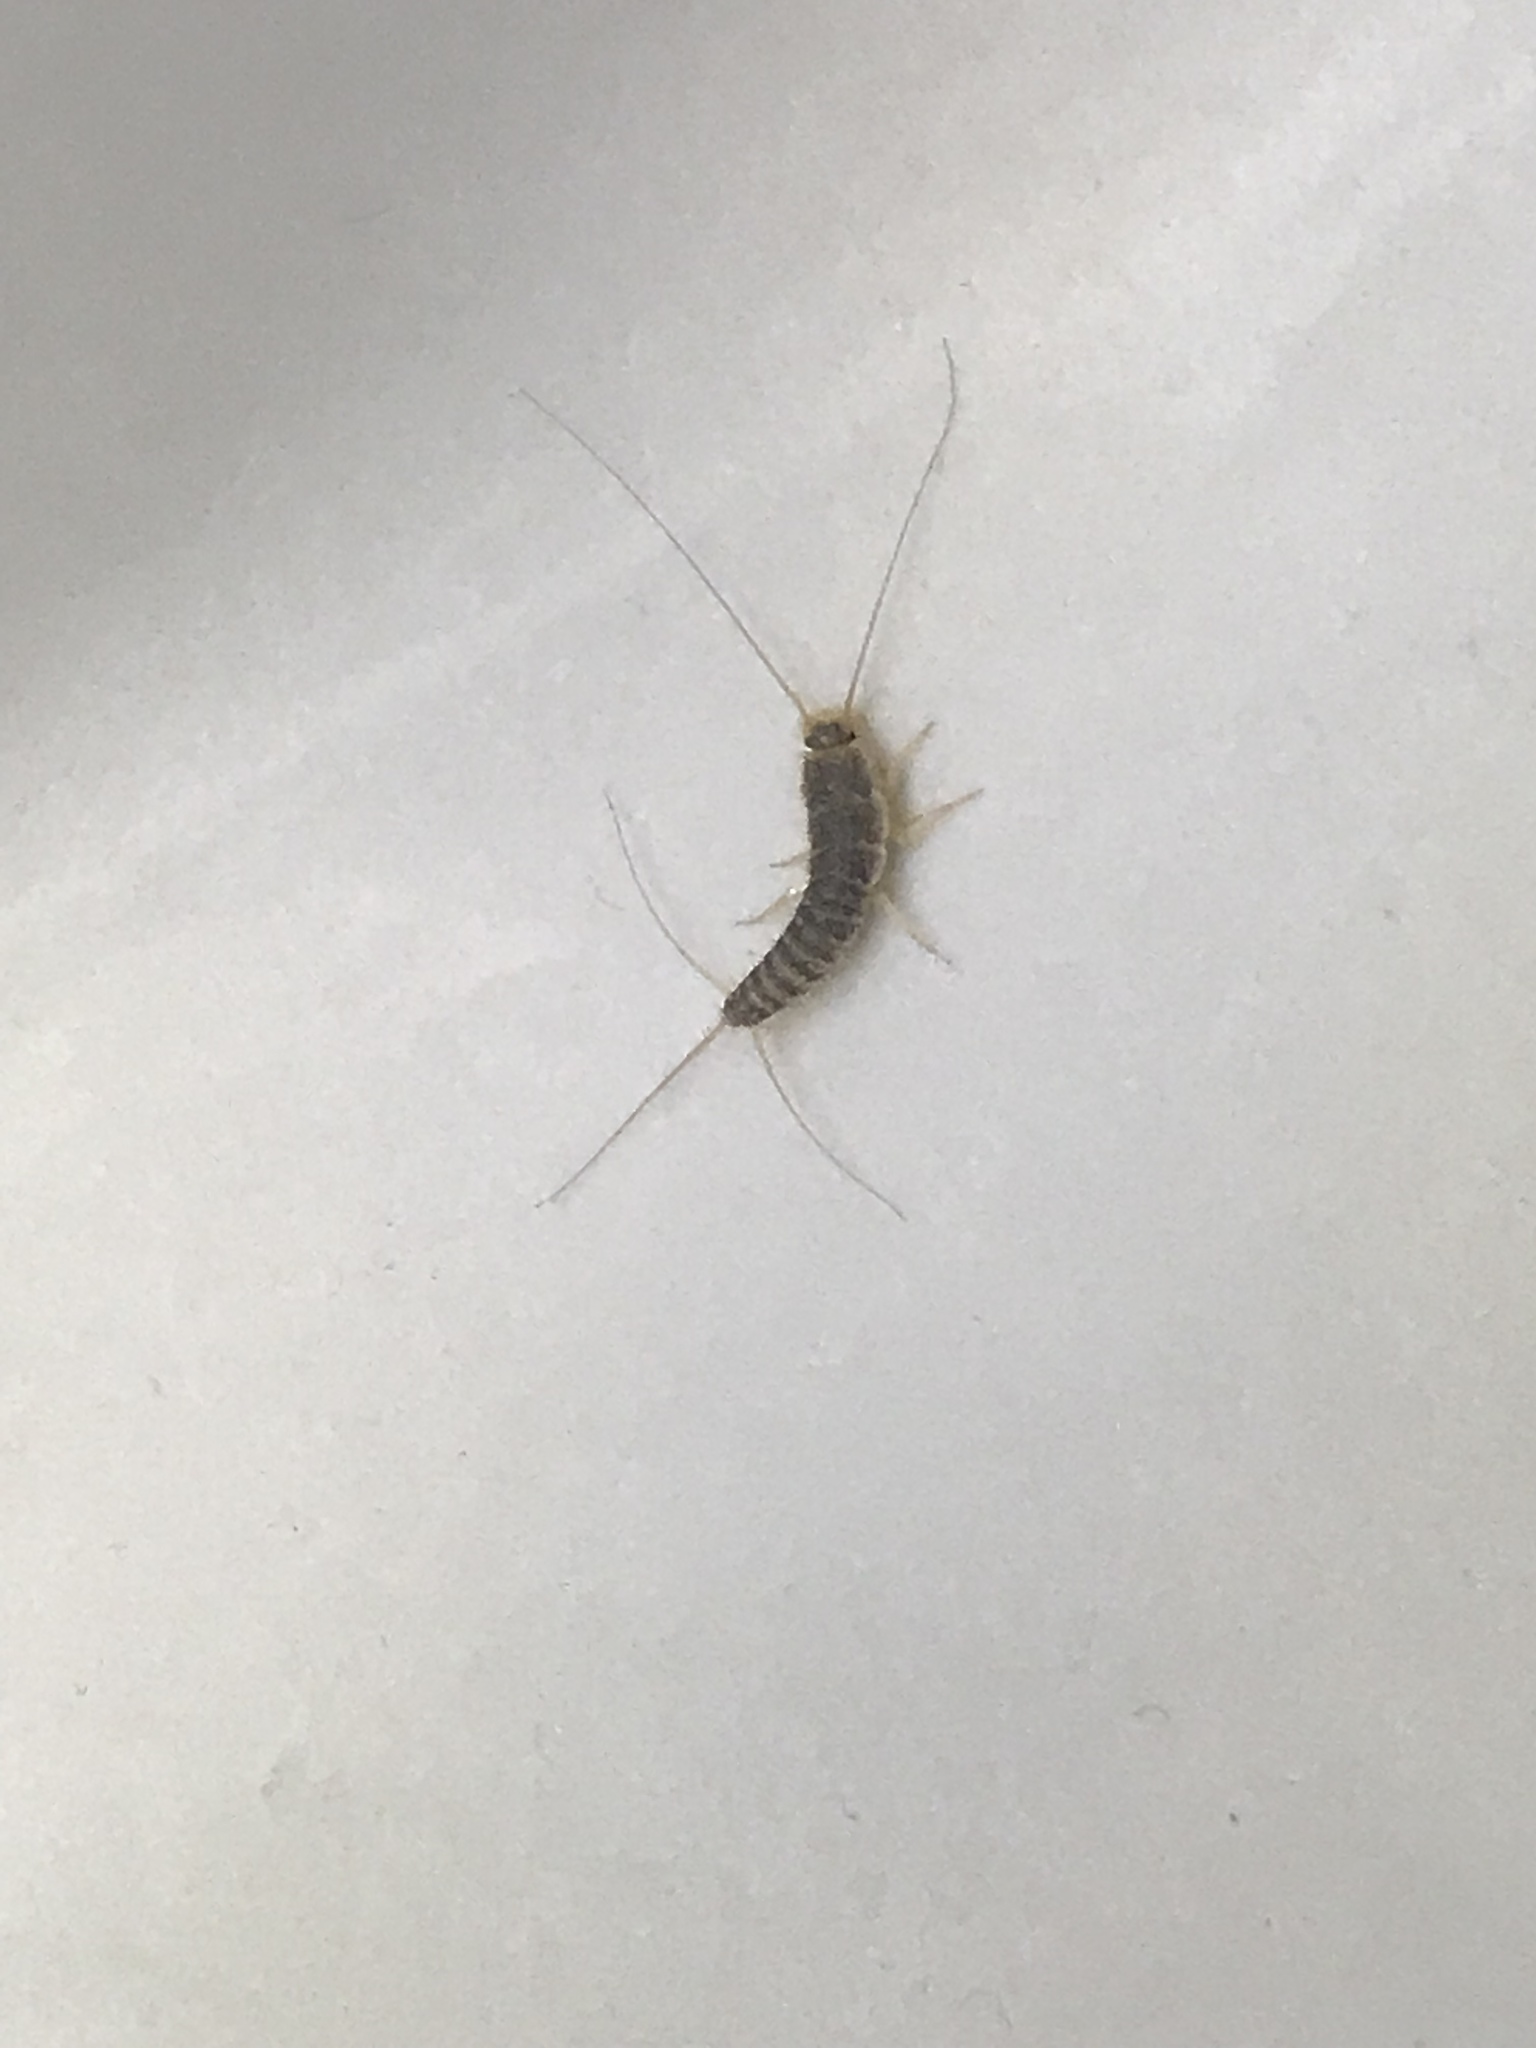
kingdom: Animalia
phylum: Arthropoda
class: Insecta
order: Zygentoma
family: Lepismatidae
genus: Ctenolepisma
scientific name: Ctenolepisma longicaudatum
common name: Silverfish
